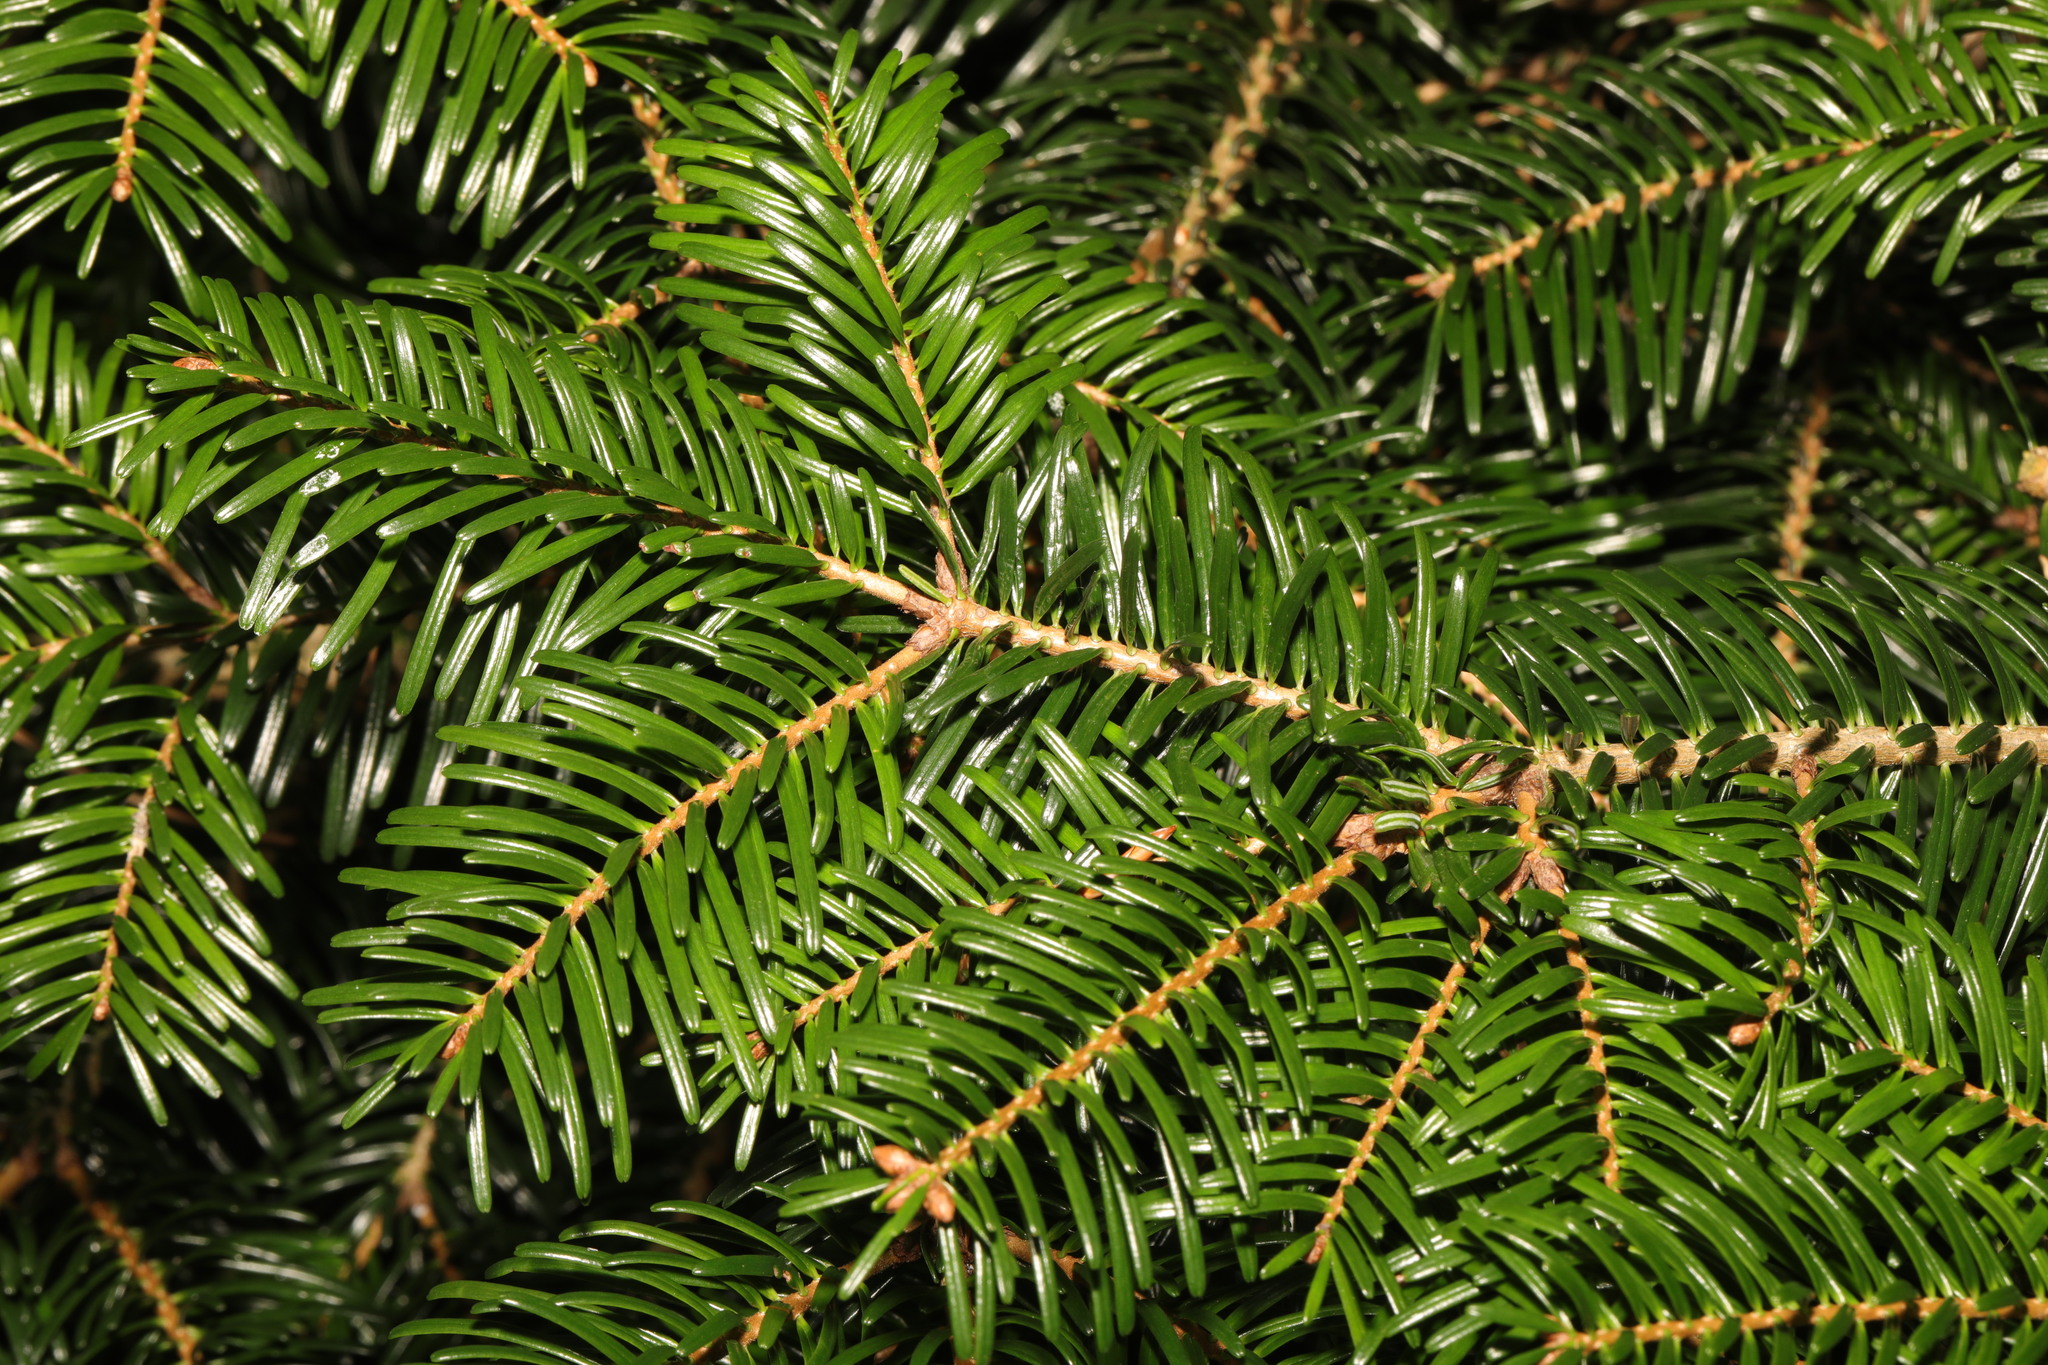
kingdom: Plantae
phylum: Tracheophyta
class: Pinopsida
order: Pinales
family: Pinaceae
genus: Abies
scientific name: Abies nordmanniana
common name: Caucasian fir
